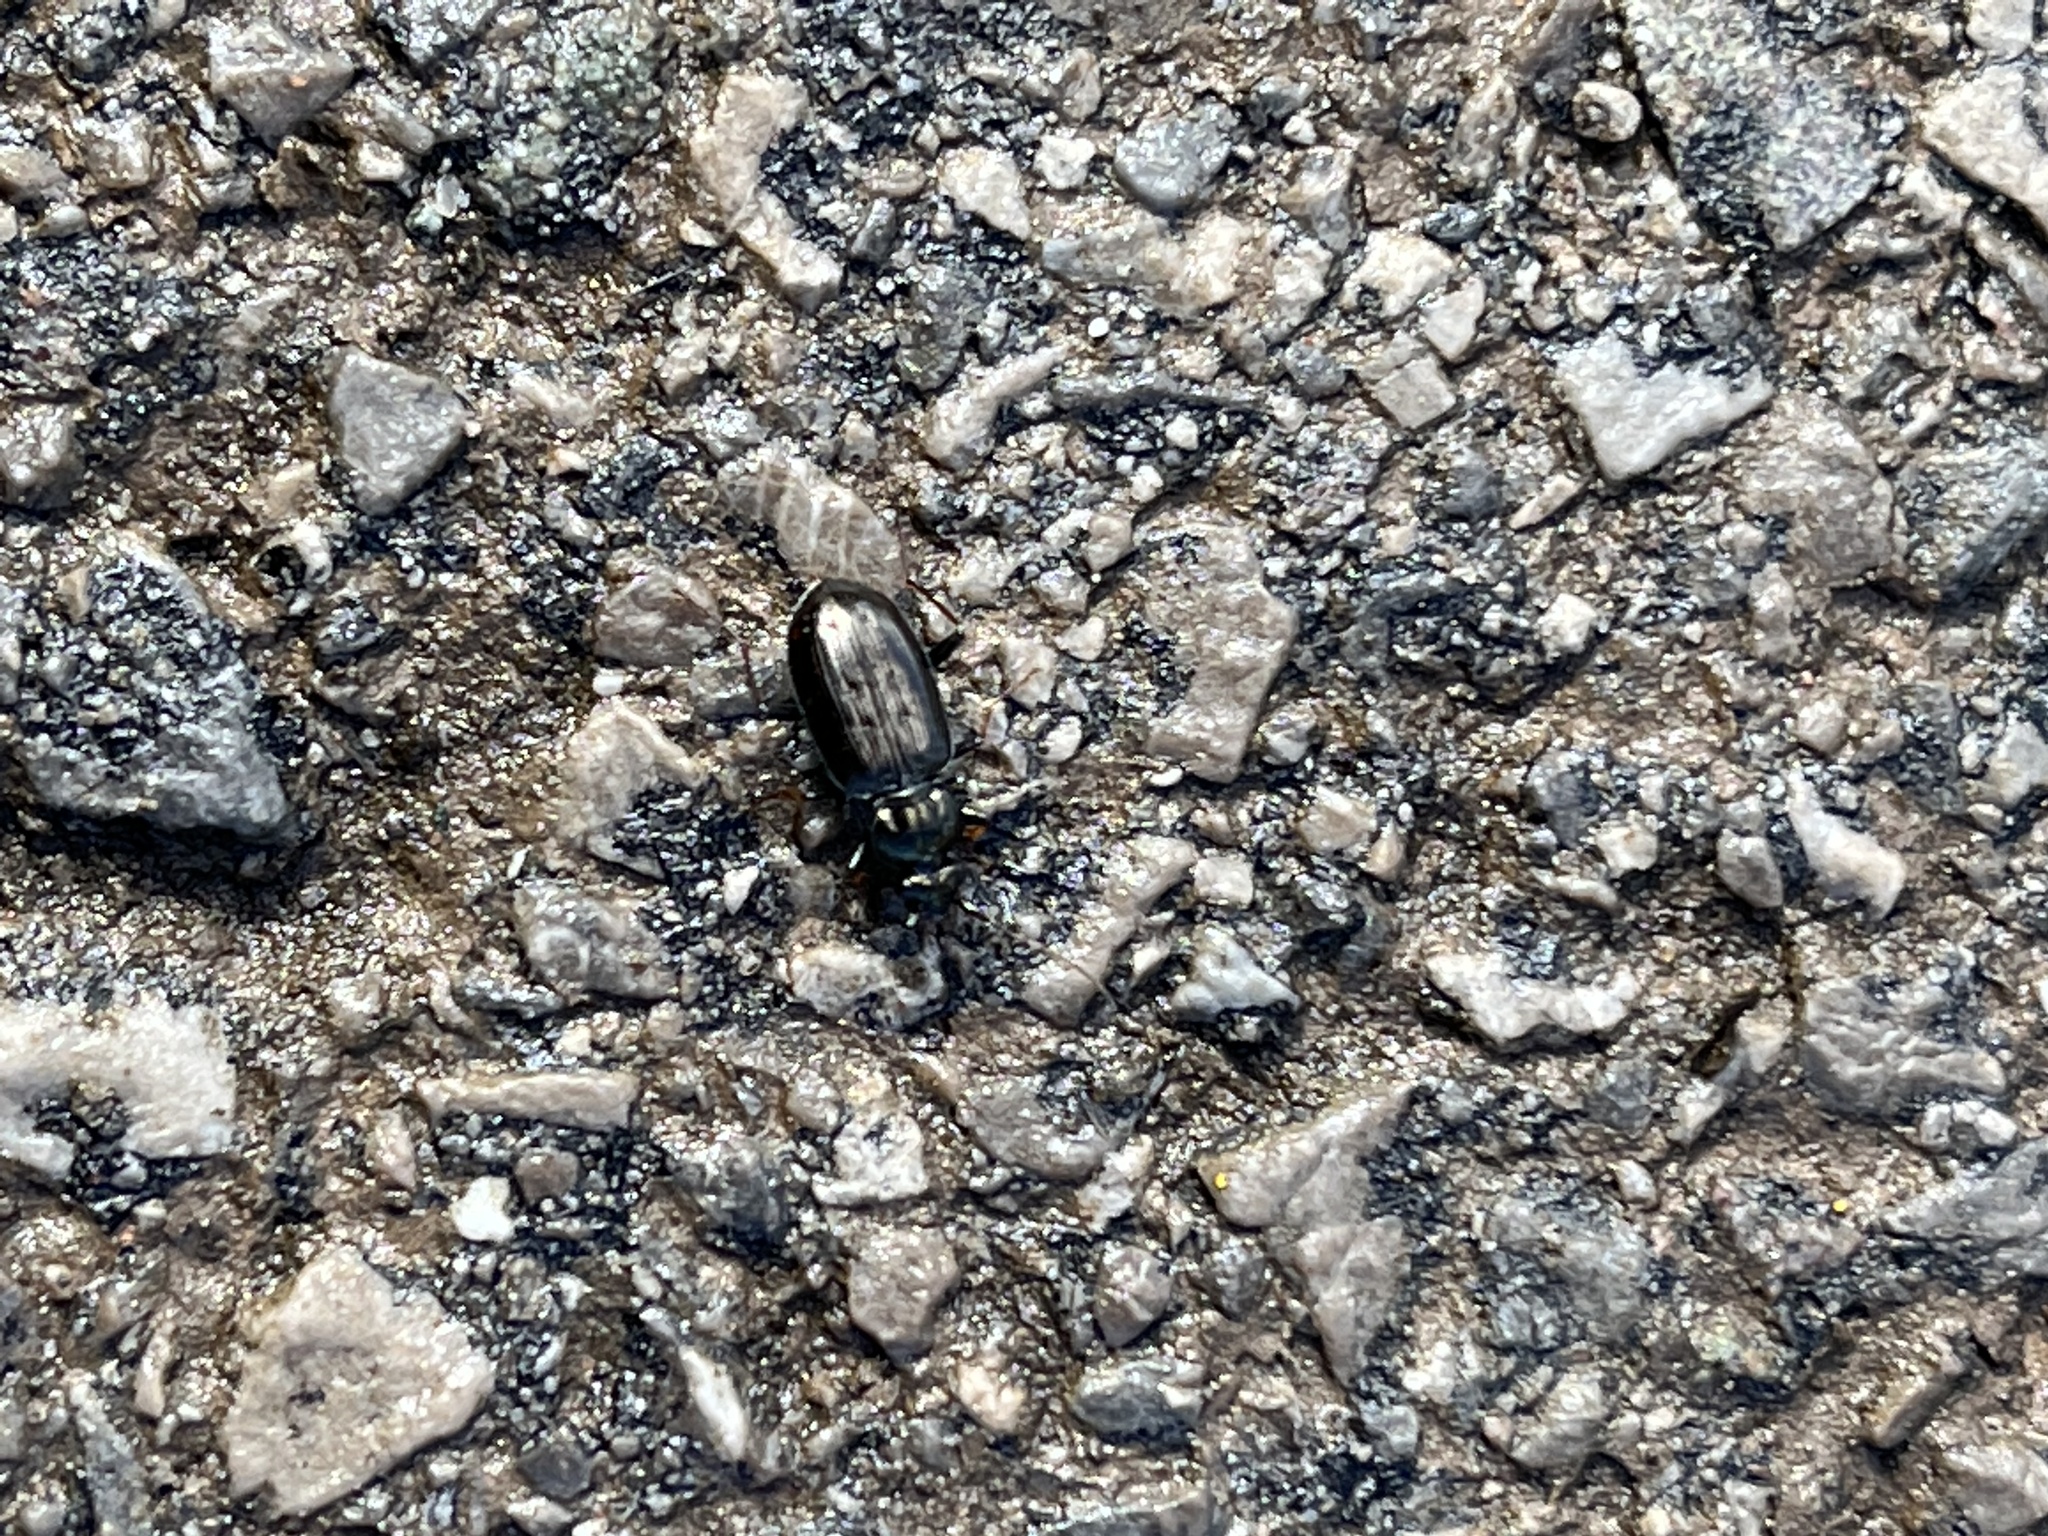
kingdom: Animalia
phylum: Arthropoda
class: Insecta
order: Coleoptera
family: Carabidae
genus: Loricera
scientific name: Loricera pilicornis
